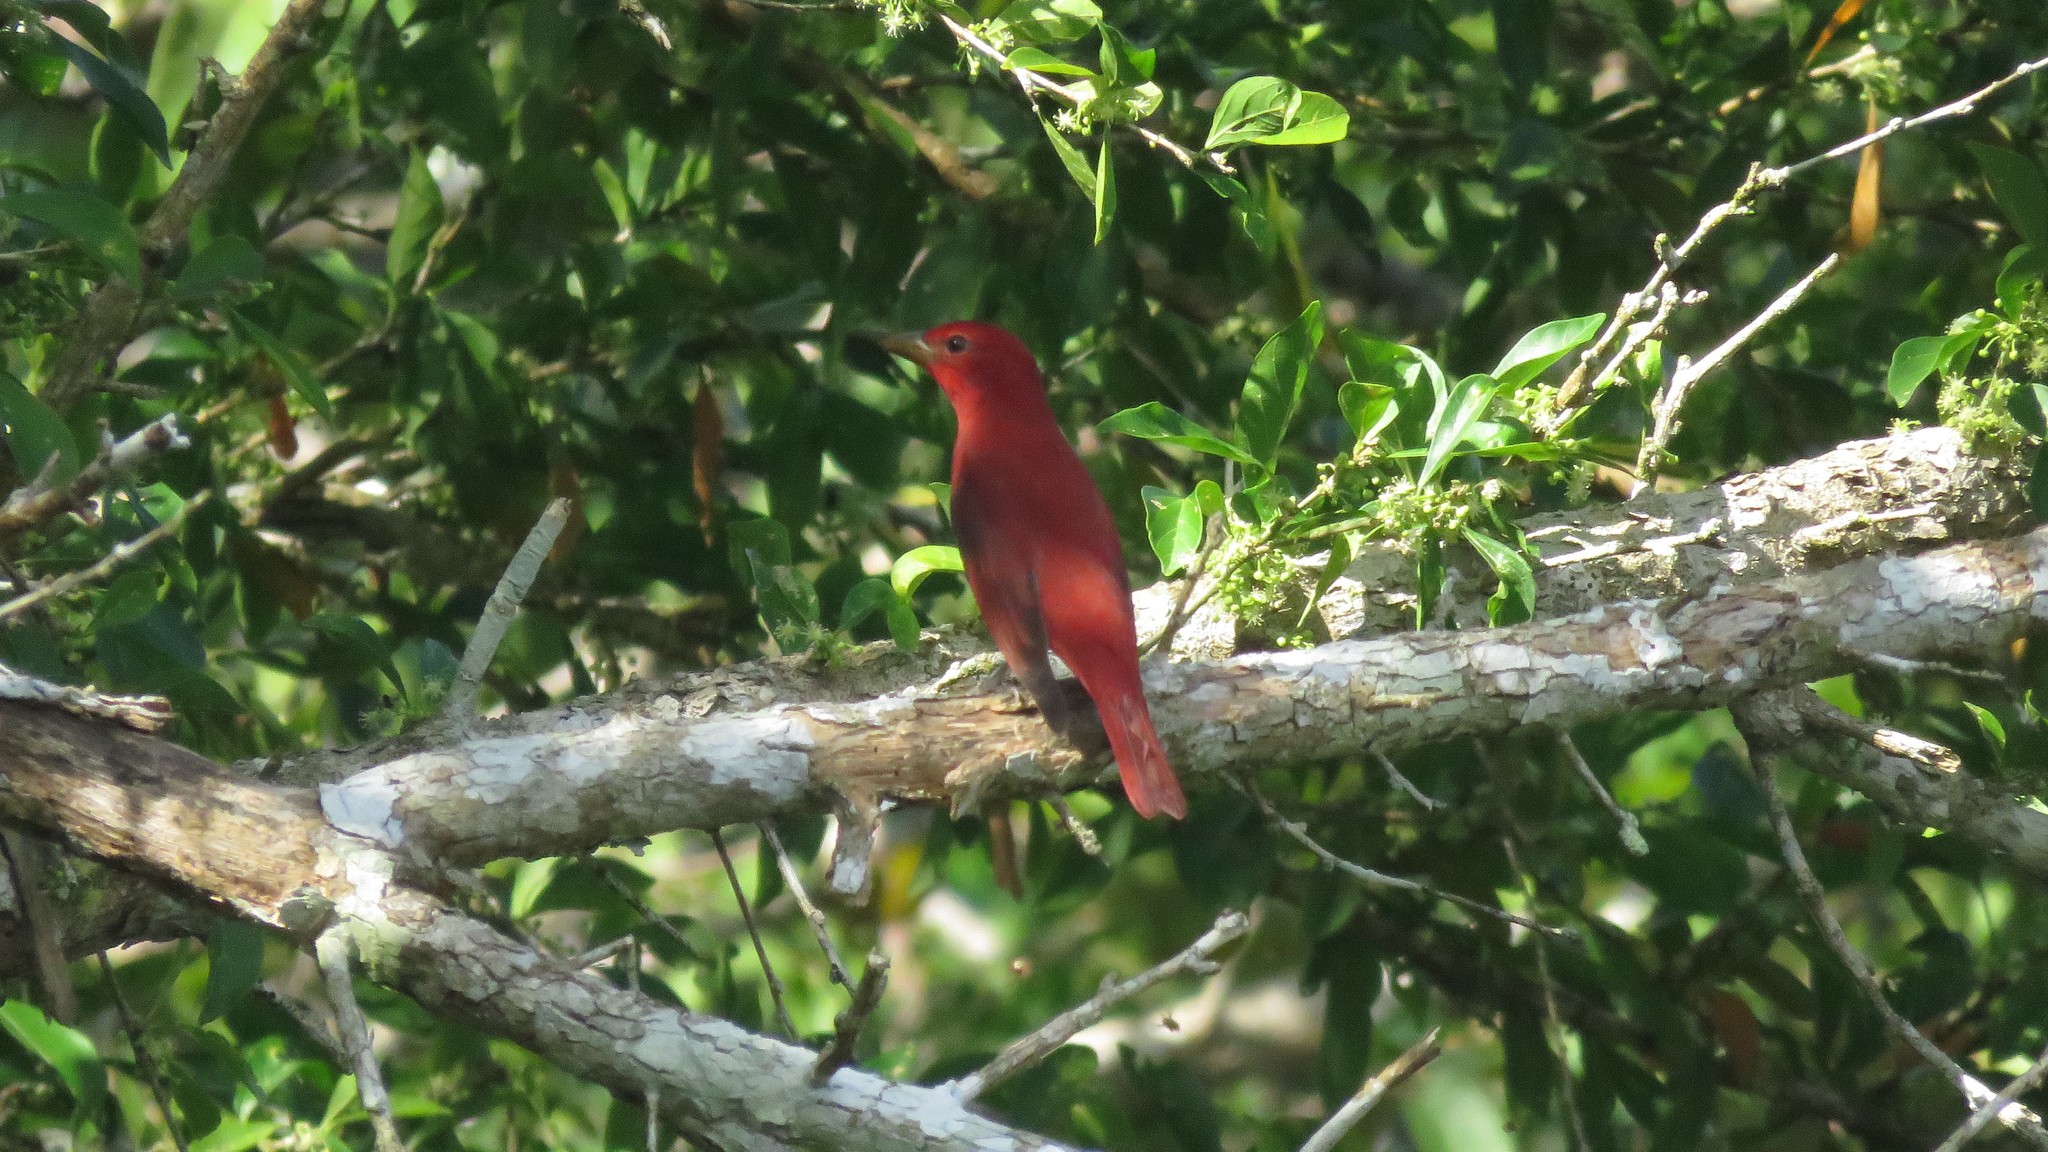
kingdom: Animalia
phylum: Chordata
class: Aves
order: Passeriformes
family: Cardinalidae
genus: Piranga
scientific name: Piranga rubra
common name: Summer tanager
